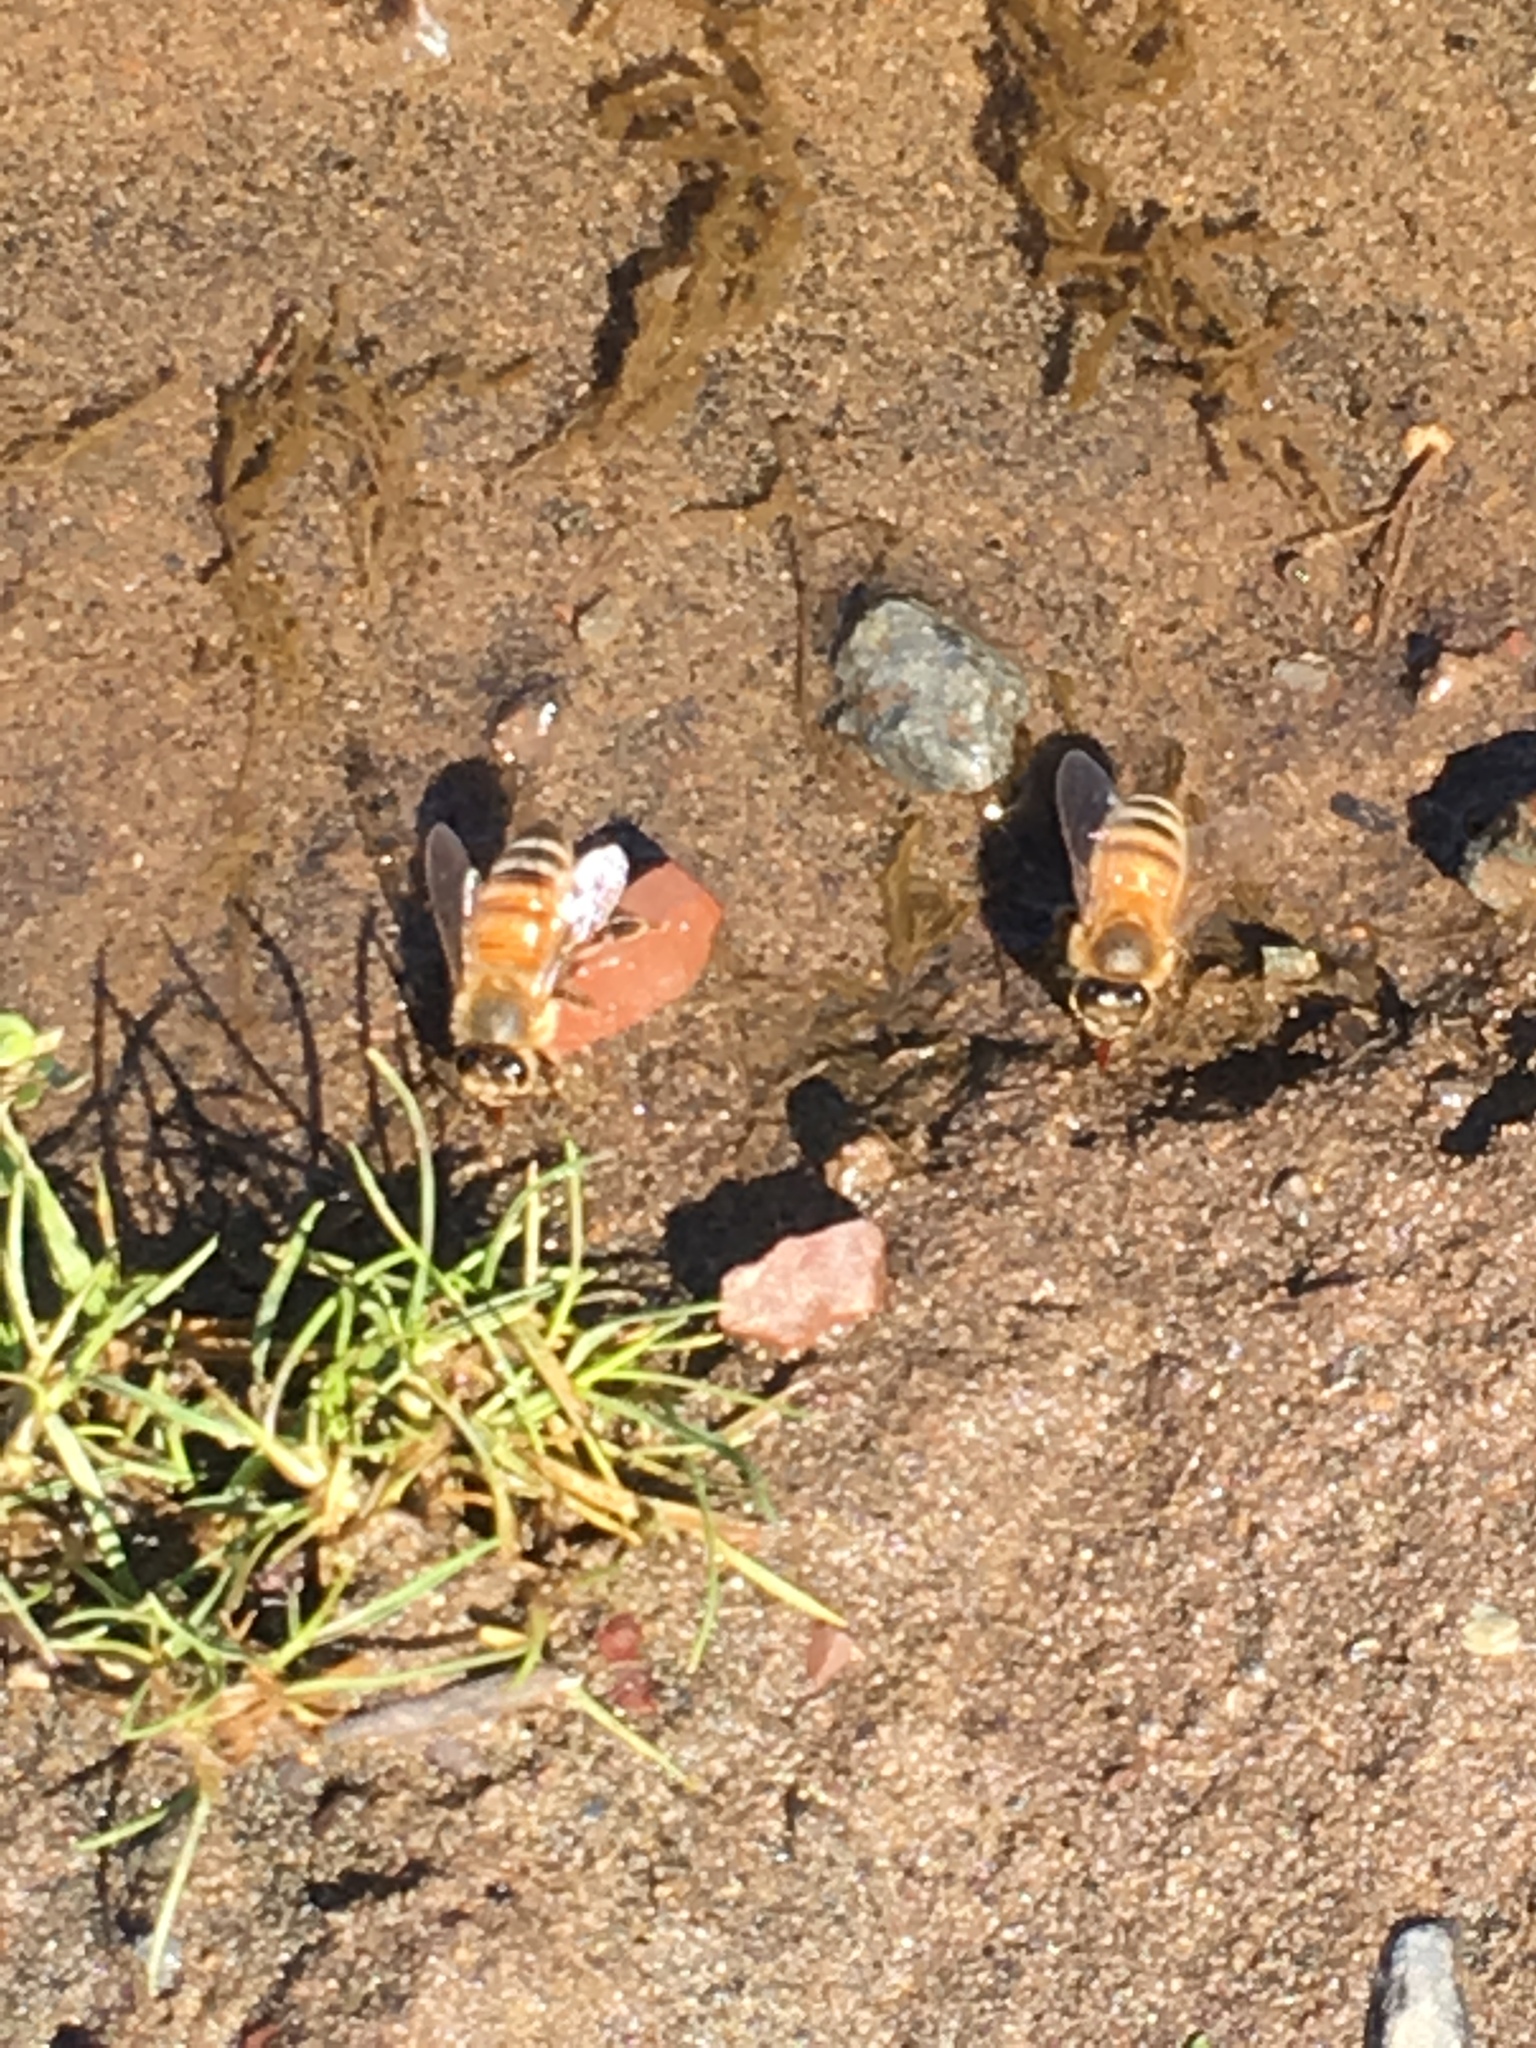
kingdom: Animalia
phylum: Arthropoda
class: Insecta
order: Hymenoptera
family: Apidae
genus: Apis
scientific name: Apis mellifera
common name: Honey bee
